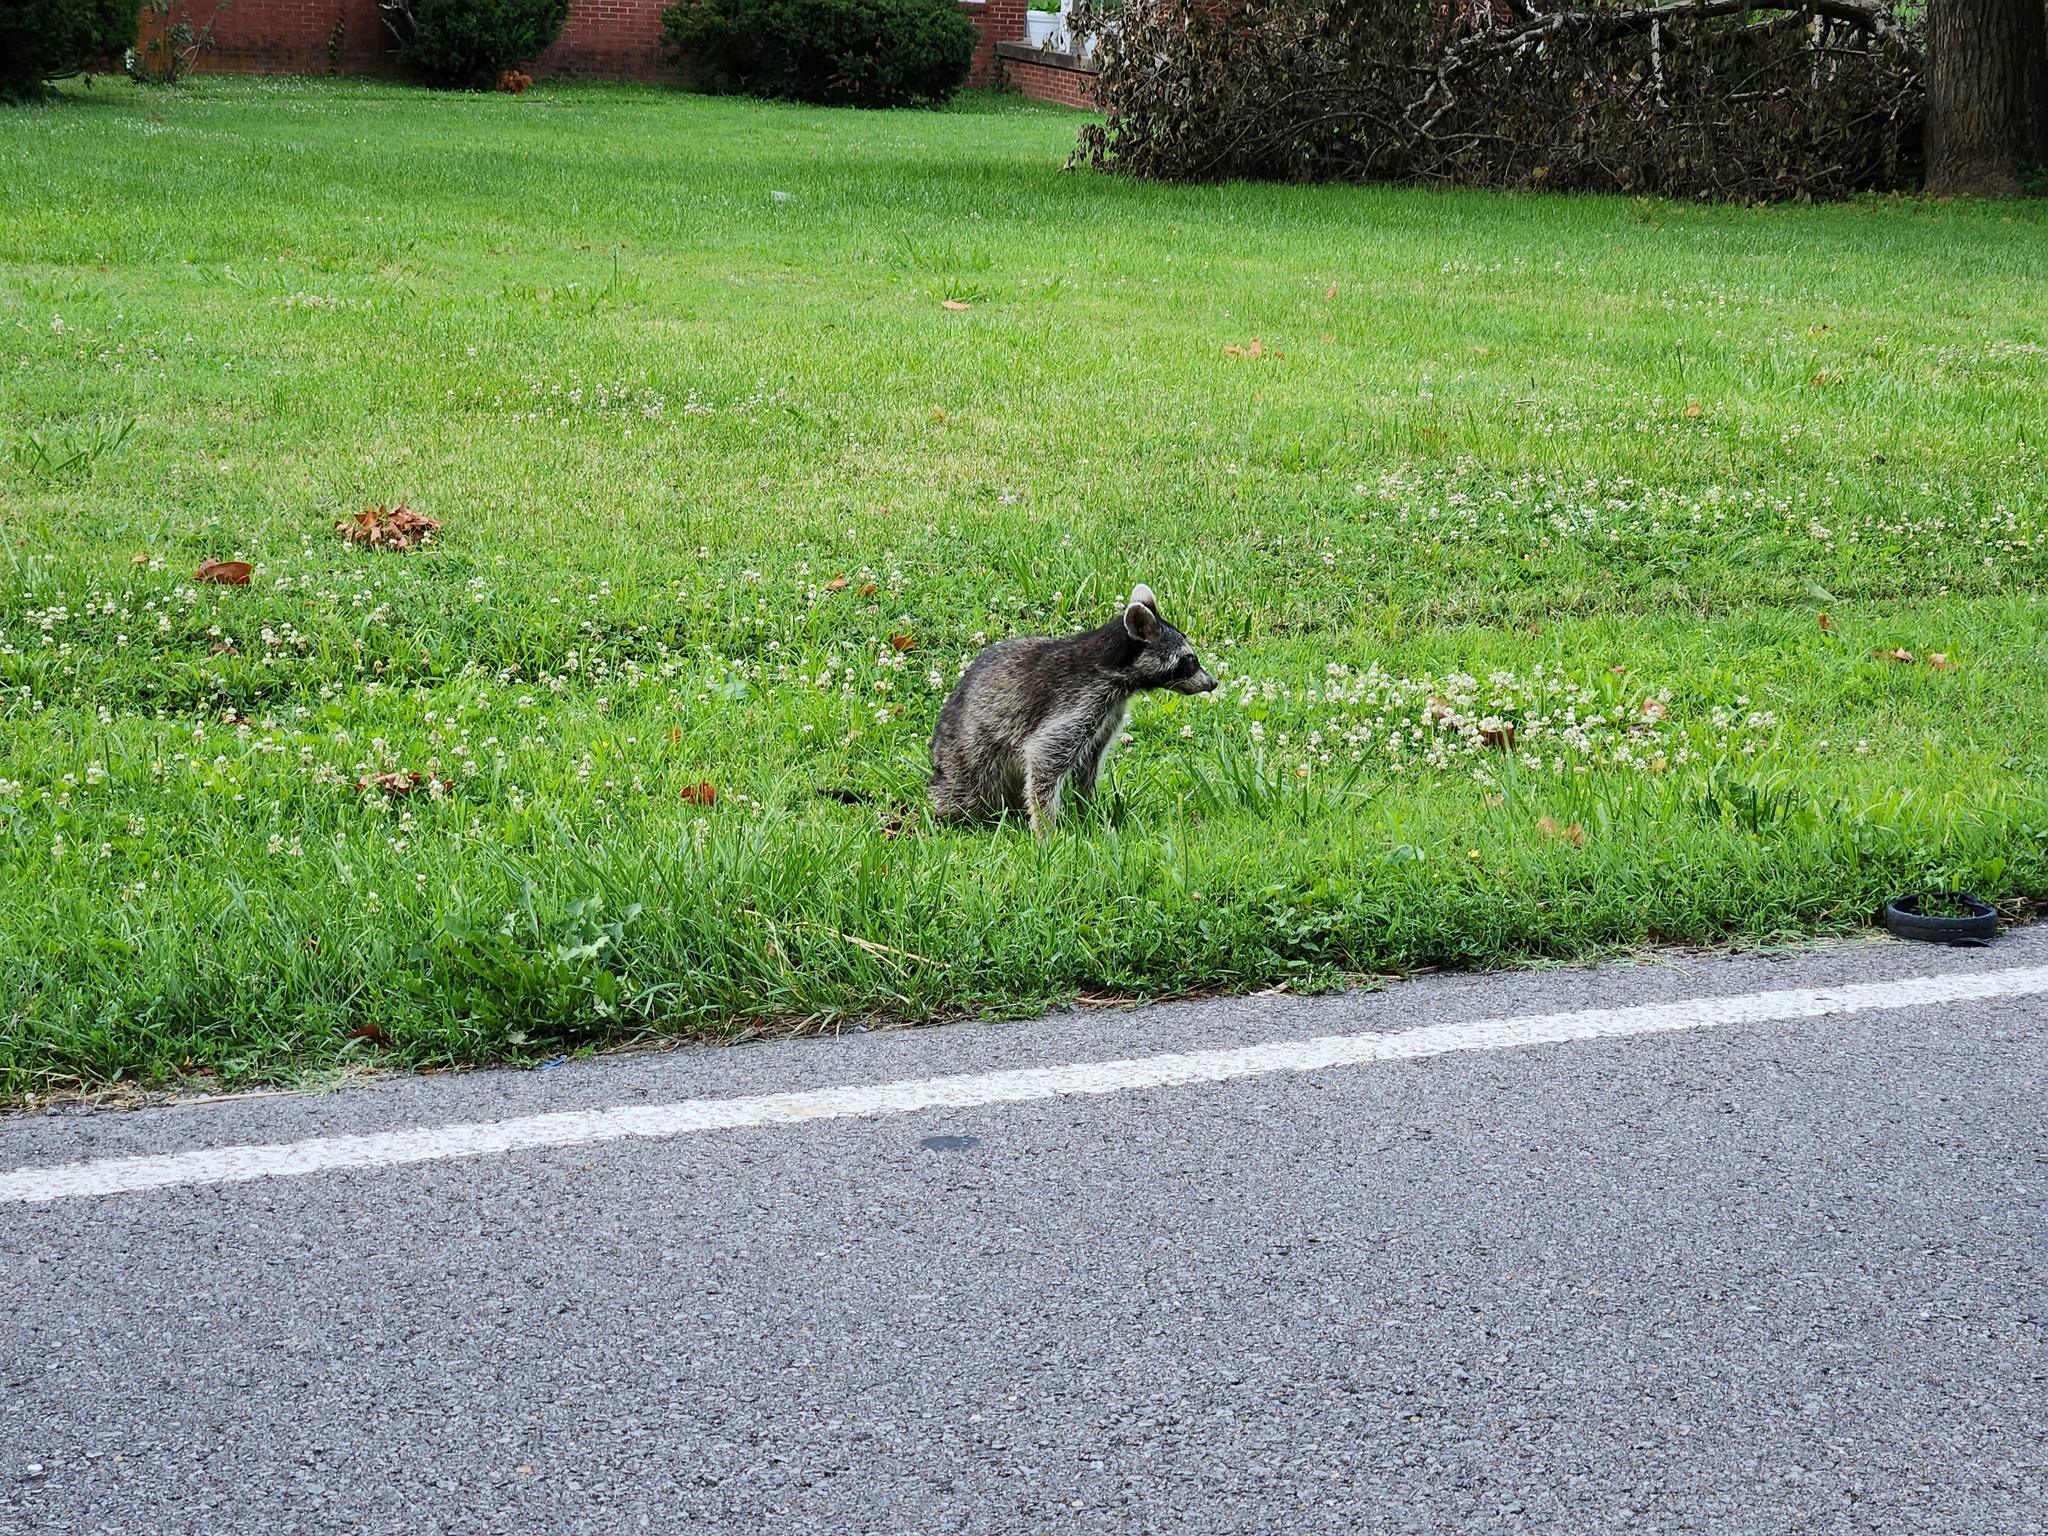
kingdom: Animalia
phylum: Chordata
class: Mammalia
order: Carnivora
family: Procyonidae
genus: Procyon
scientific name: Procyon lotor
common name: Raccoon
